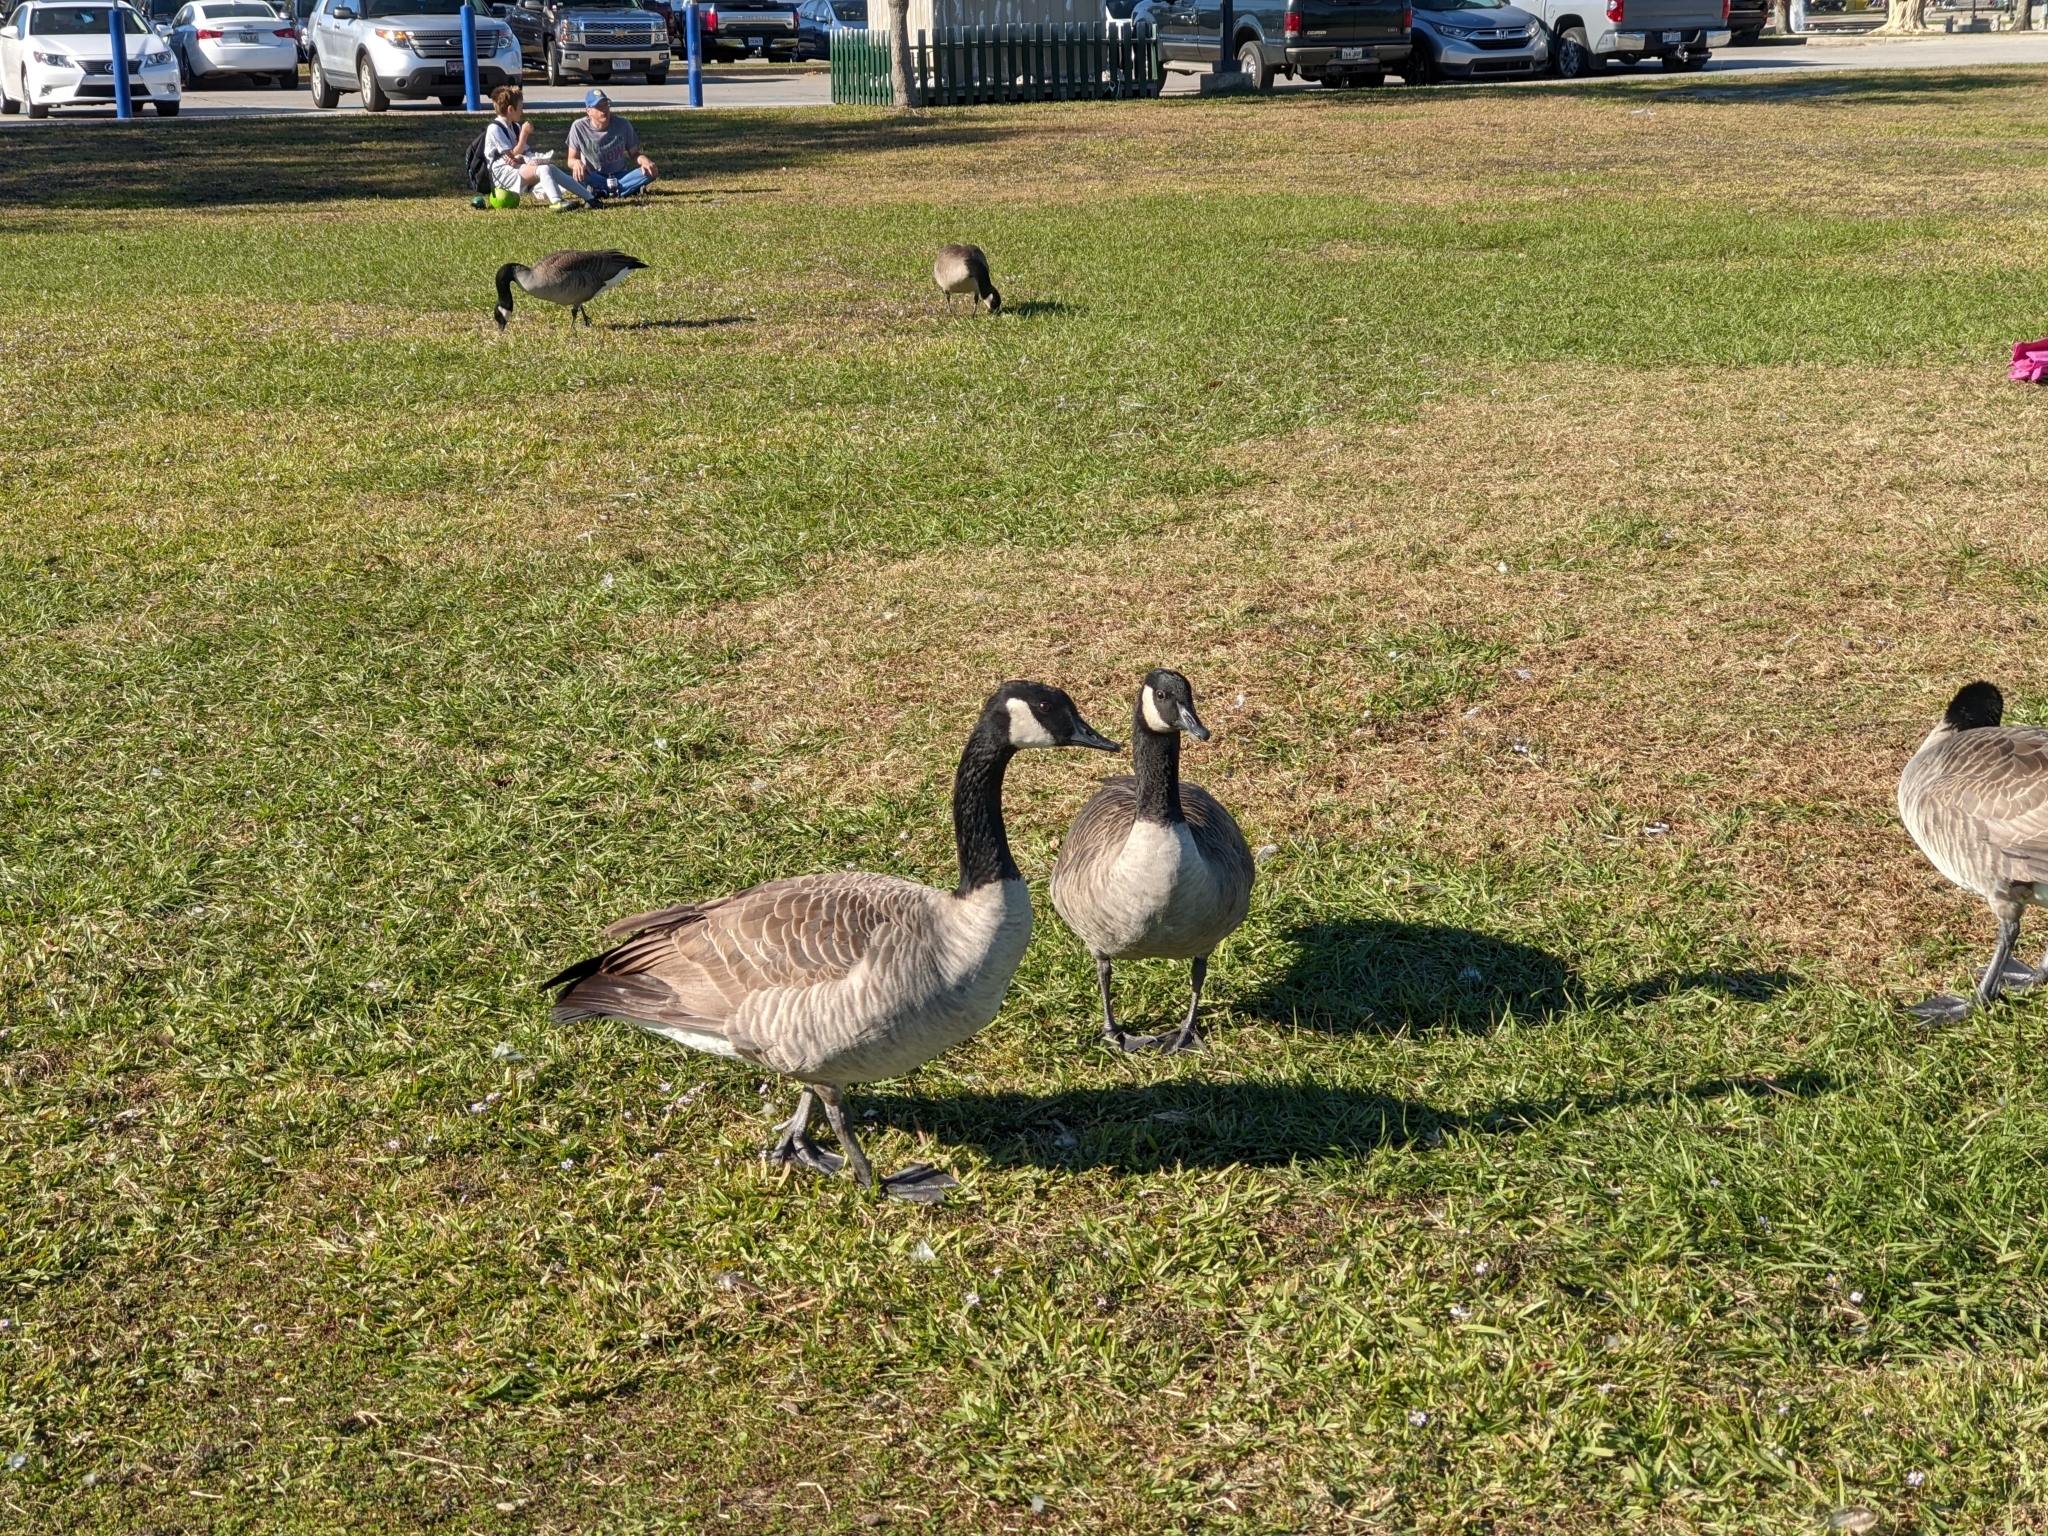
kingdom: Animalia
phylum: Chordata
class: Aves
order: Anseriformes
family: Anatidae
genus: Branta
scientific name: Branta canadensis
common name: Canada goose
